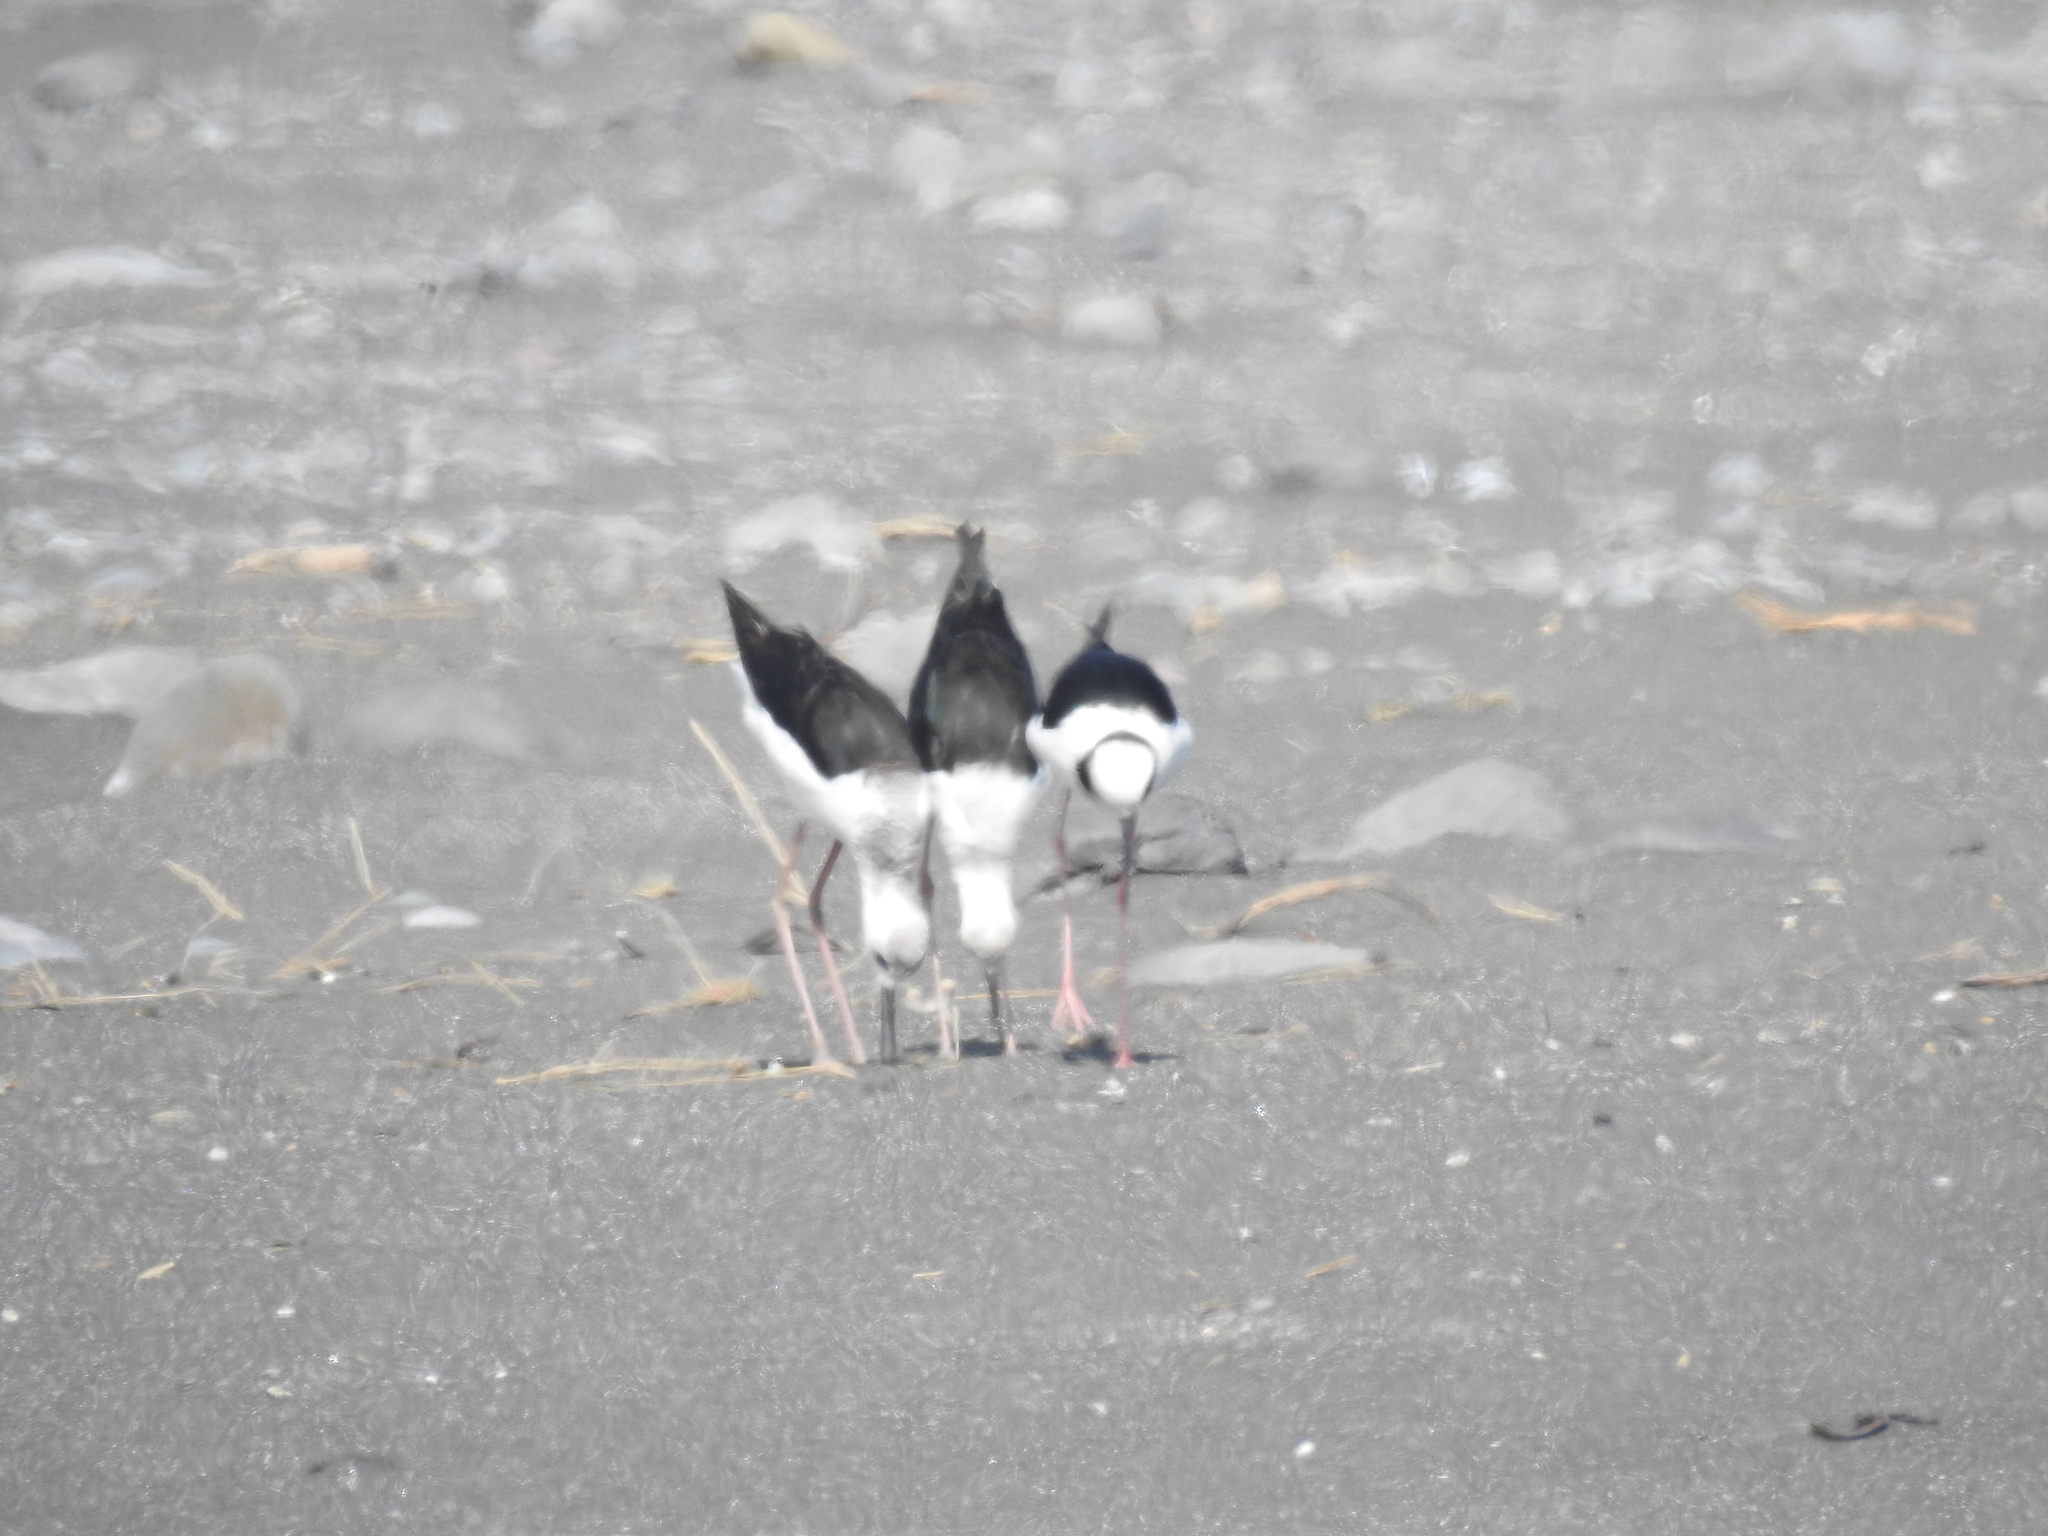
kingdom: Animalia
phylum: Chordata
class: Aves
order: Charadriiformes
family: Recurvirostridae
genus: Himantopus
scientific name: Himantopus leucocephalus
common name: White-headed stilt
